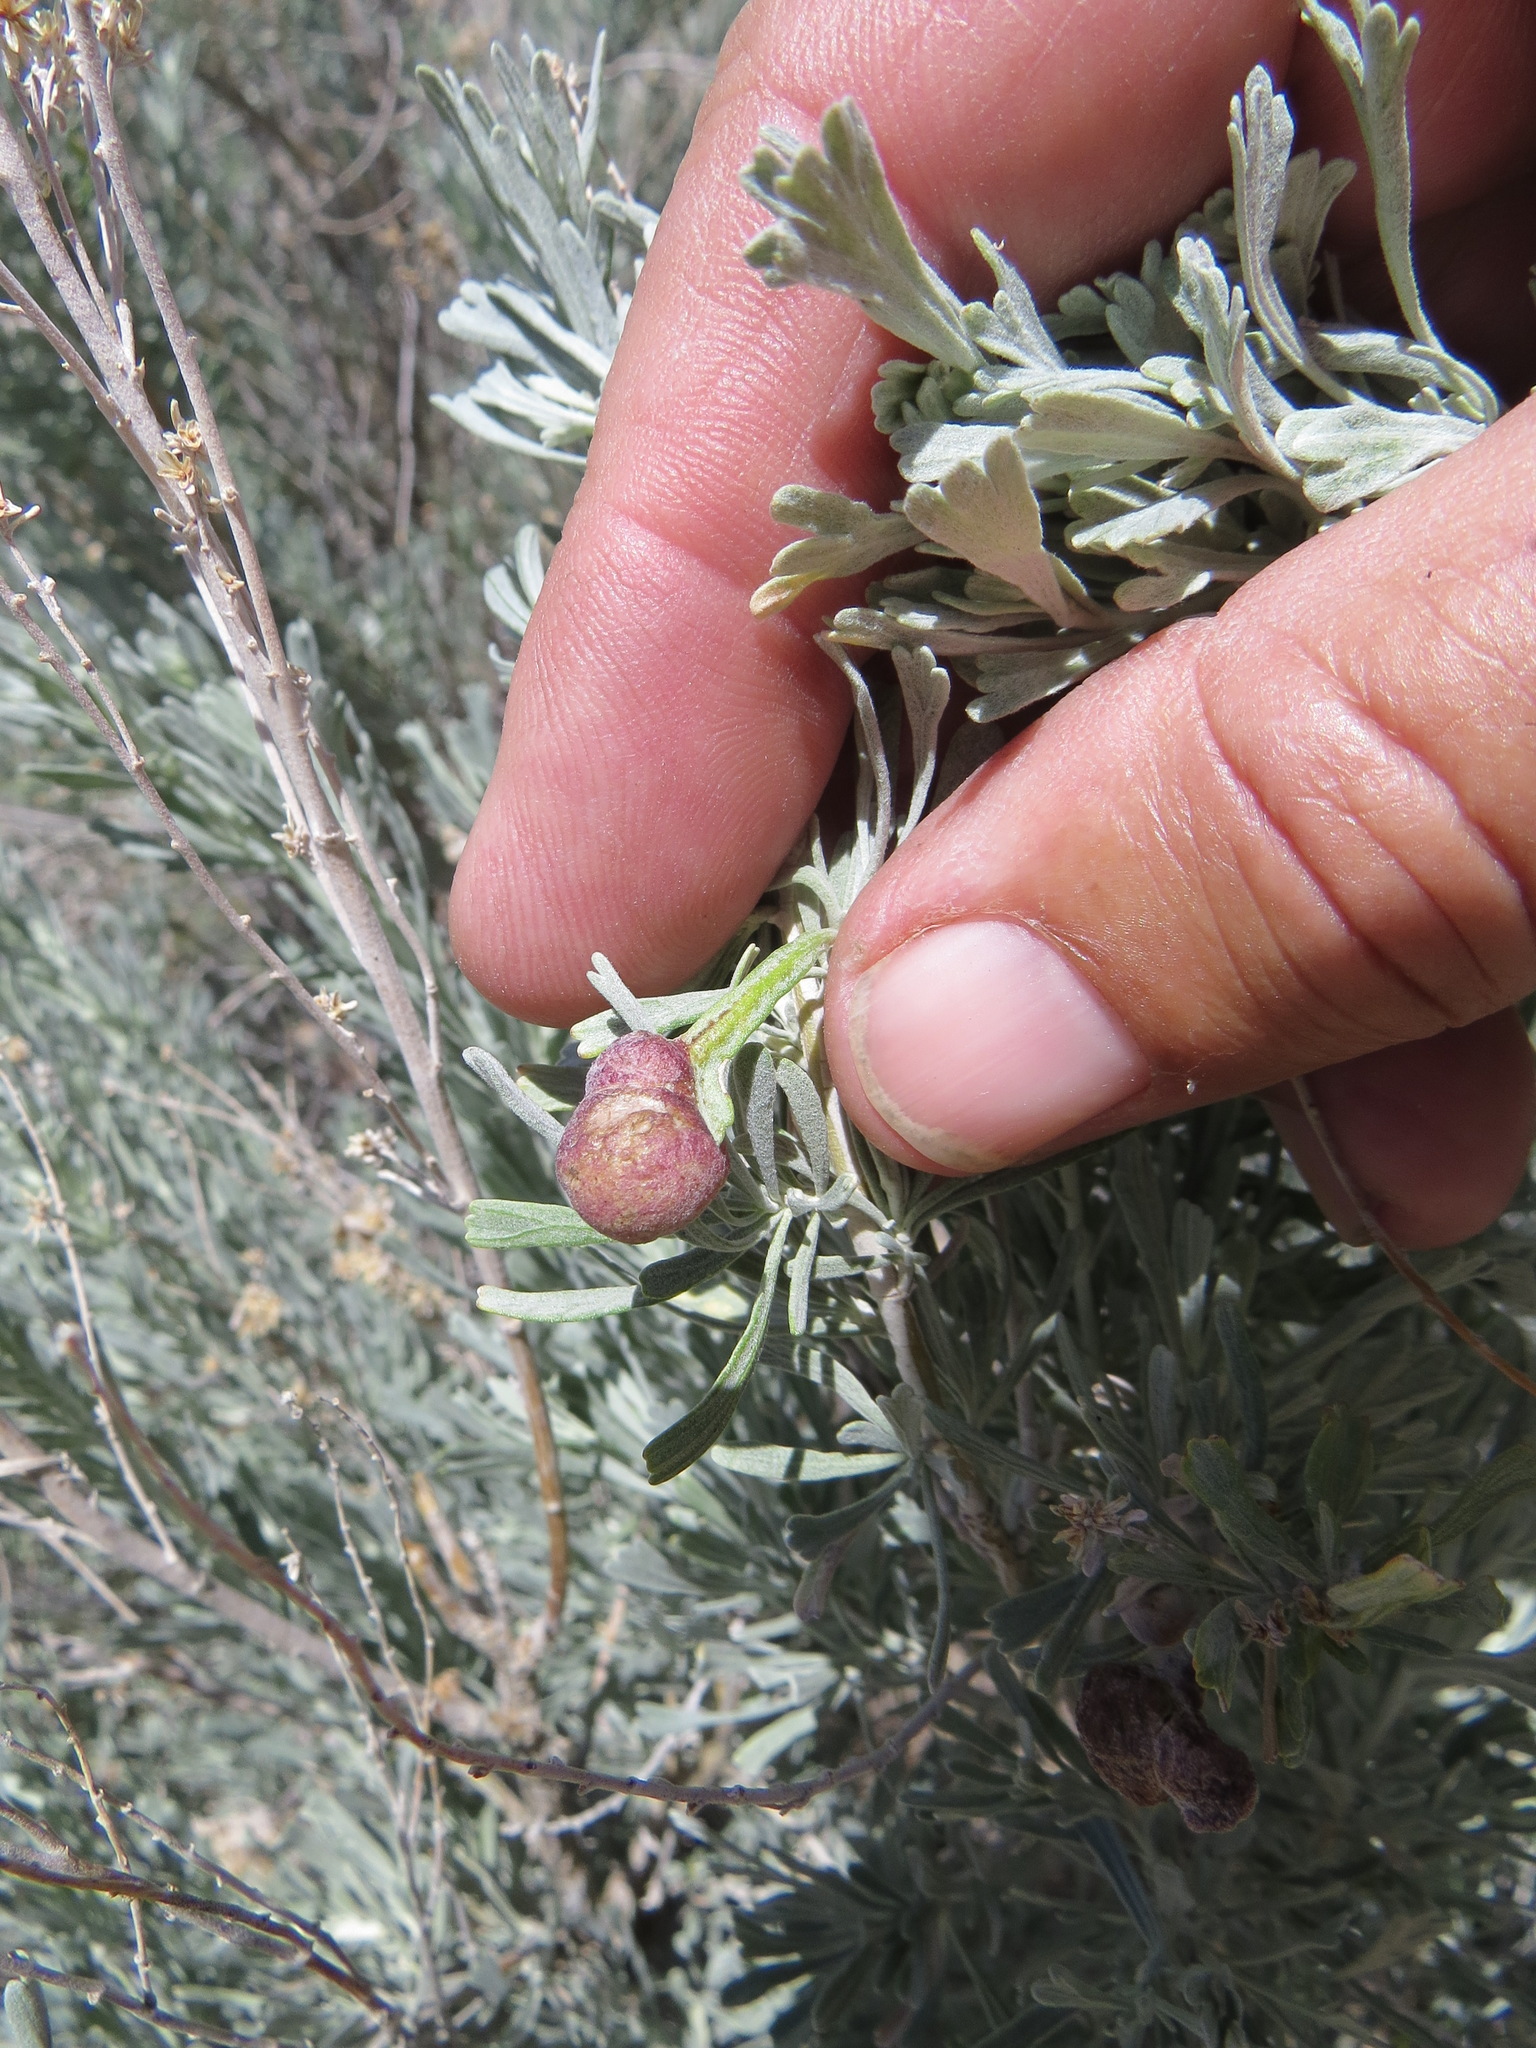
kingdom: Animalia
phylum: Arthropoda
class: Insecta
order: Diptera
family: Cecidomyiidae
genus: Rhopalomyia
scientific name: Rhopalomyia pomum
